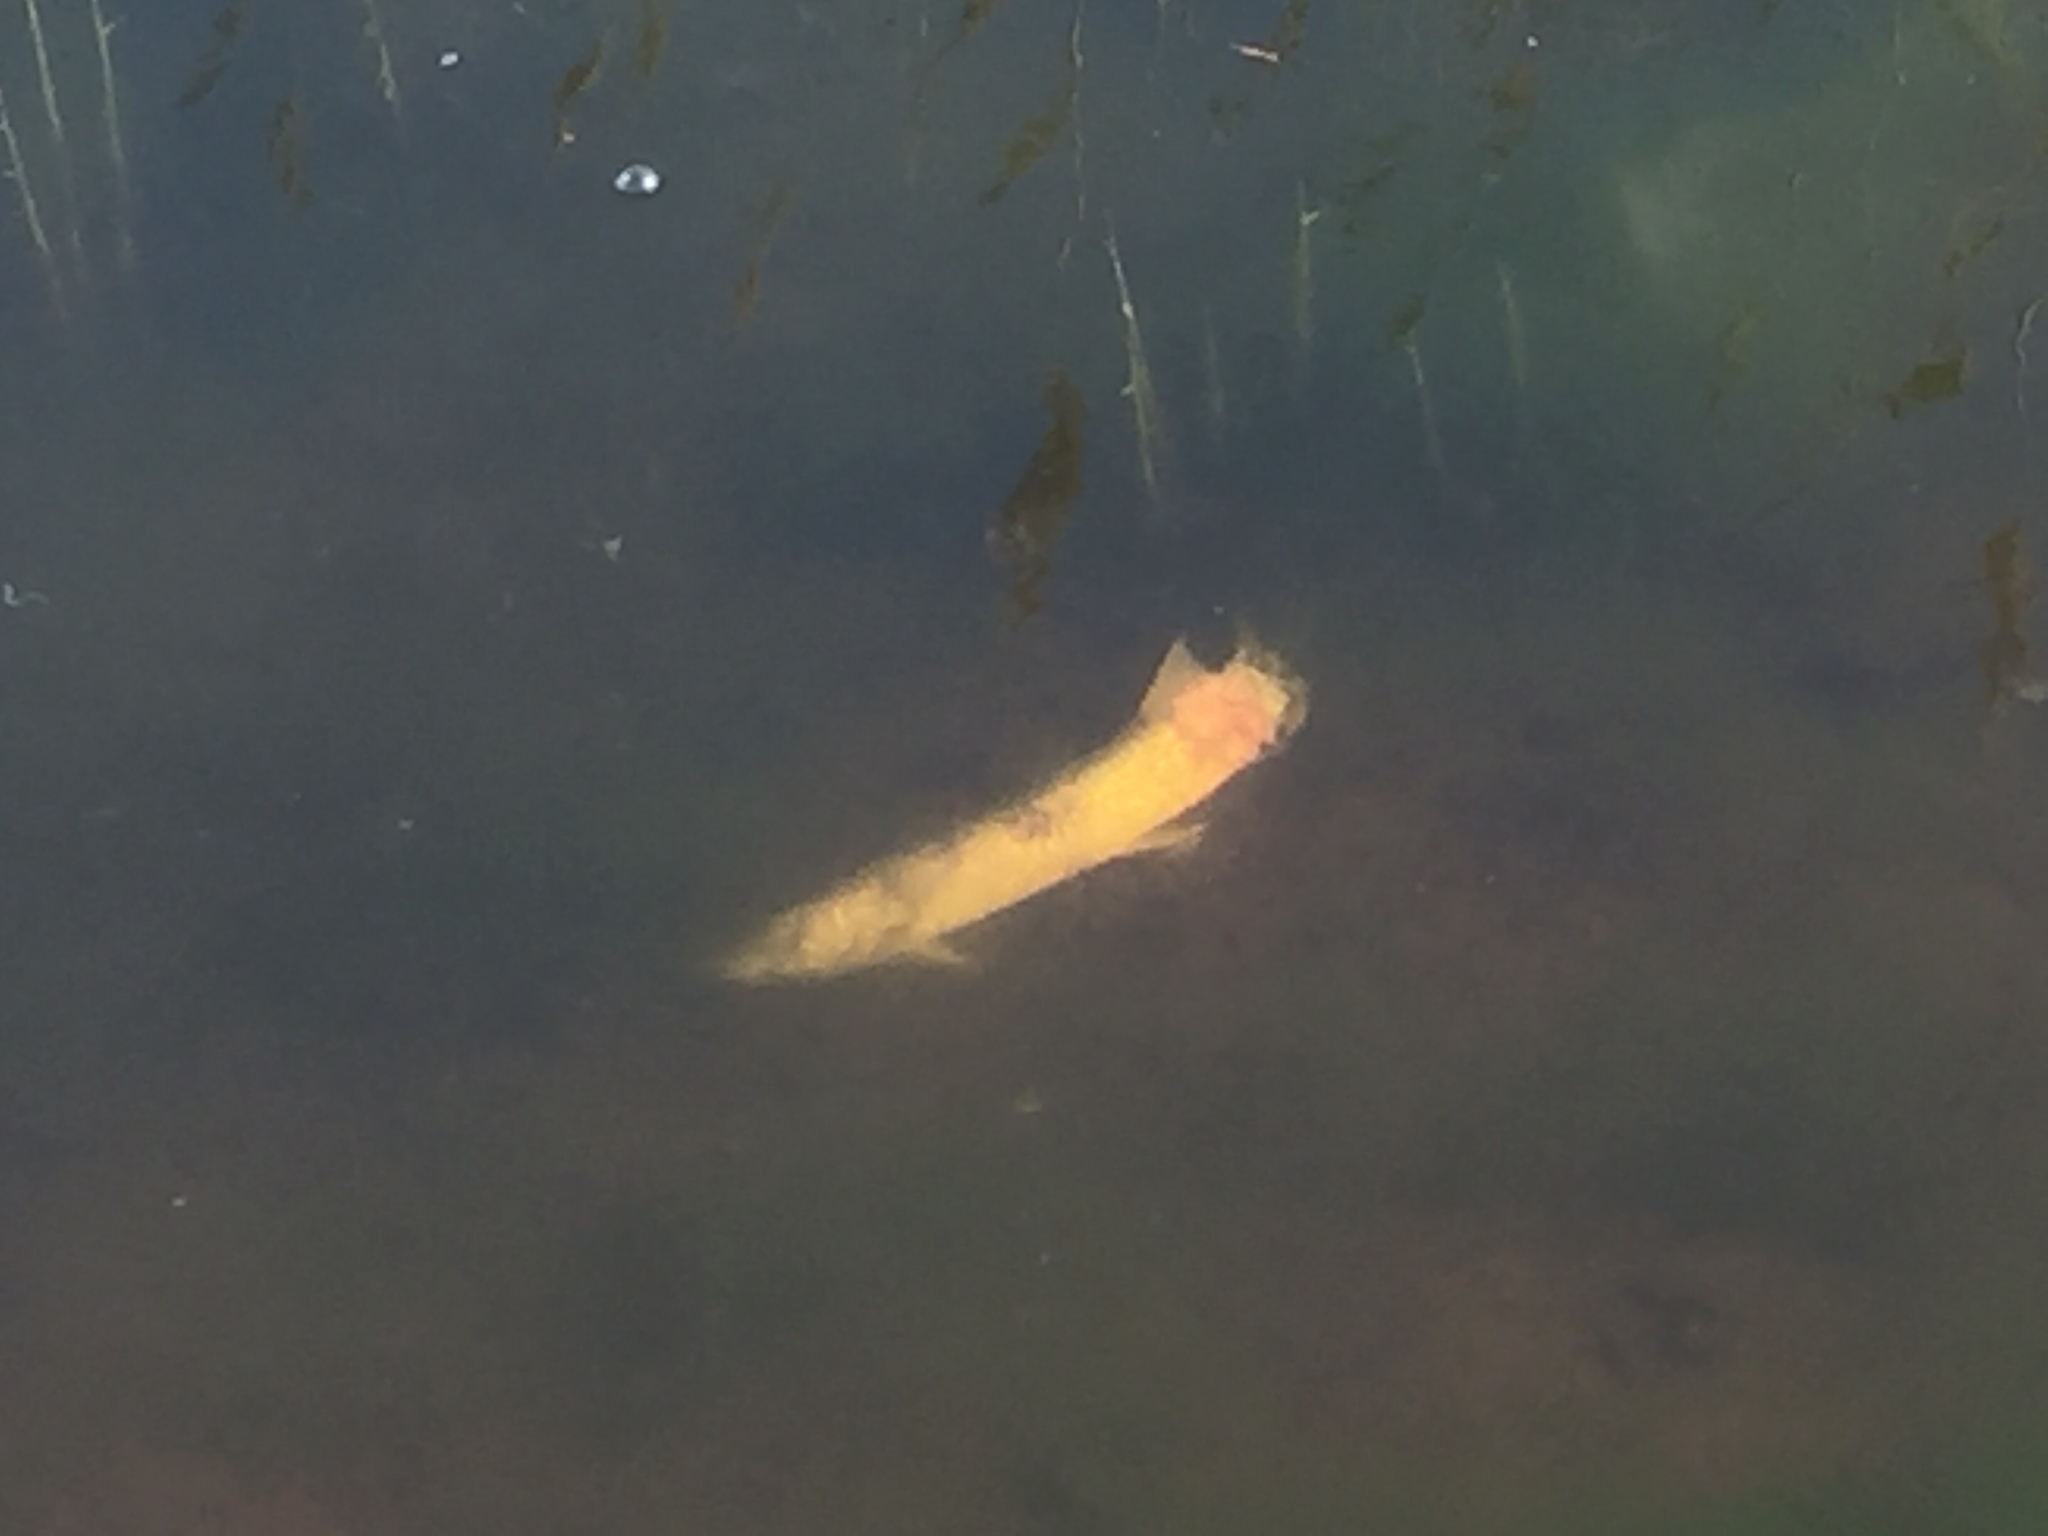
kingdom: Animalia
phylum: Chordata
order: Esociformes
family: Esocidae
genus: Esox
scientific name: Esox lucius
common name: Northern pike
